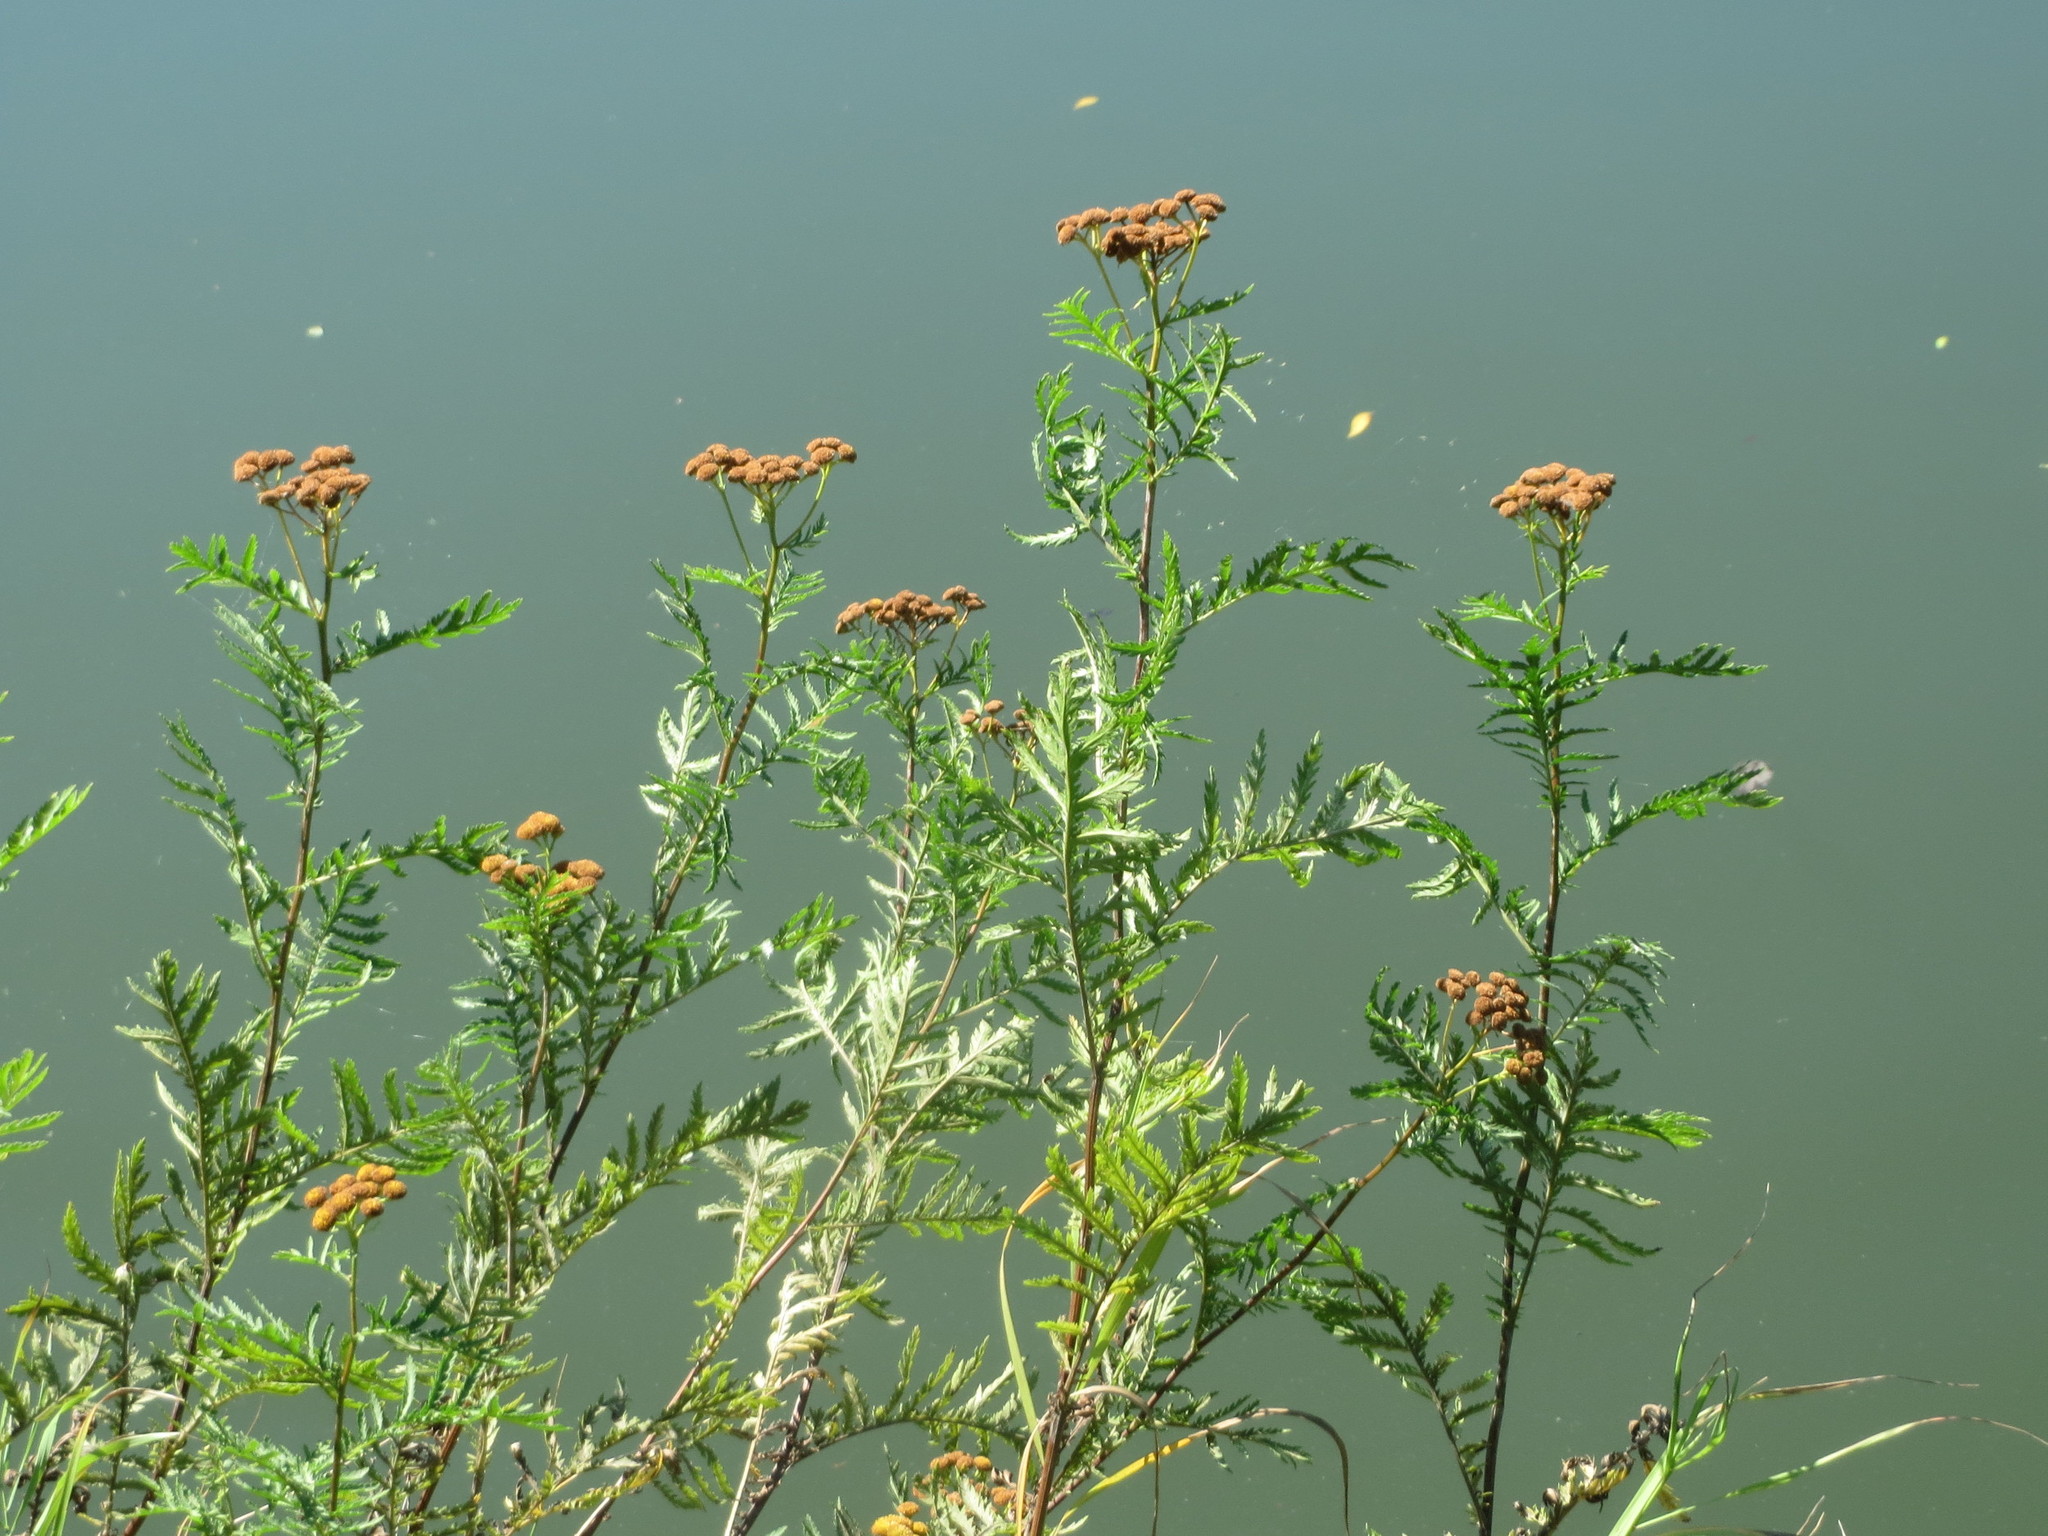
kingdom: Plantae
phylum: Tracheophyta
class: Magnoliopsida
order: Asterales
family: Asteraceae
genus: Tanacetum
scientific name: Tanacetum vulgare
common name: Common tansy
